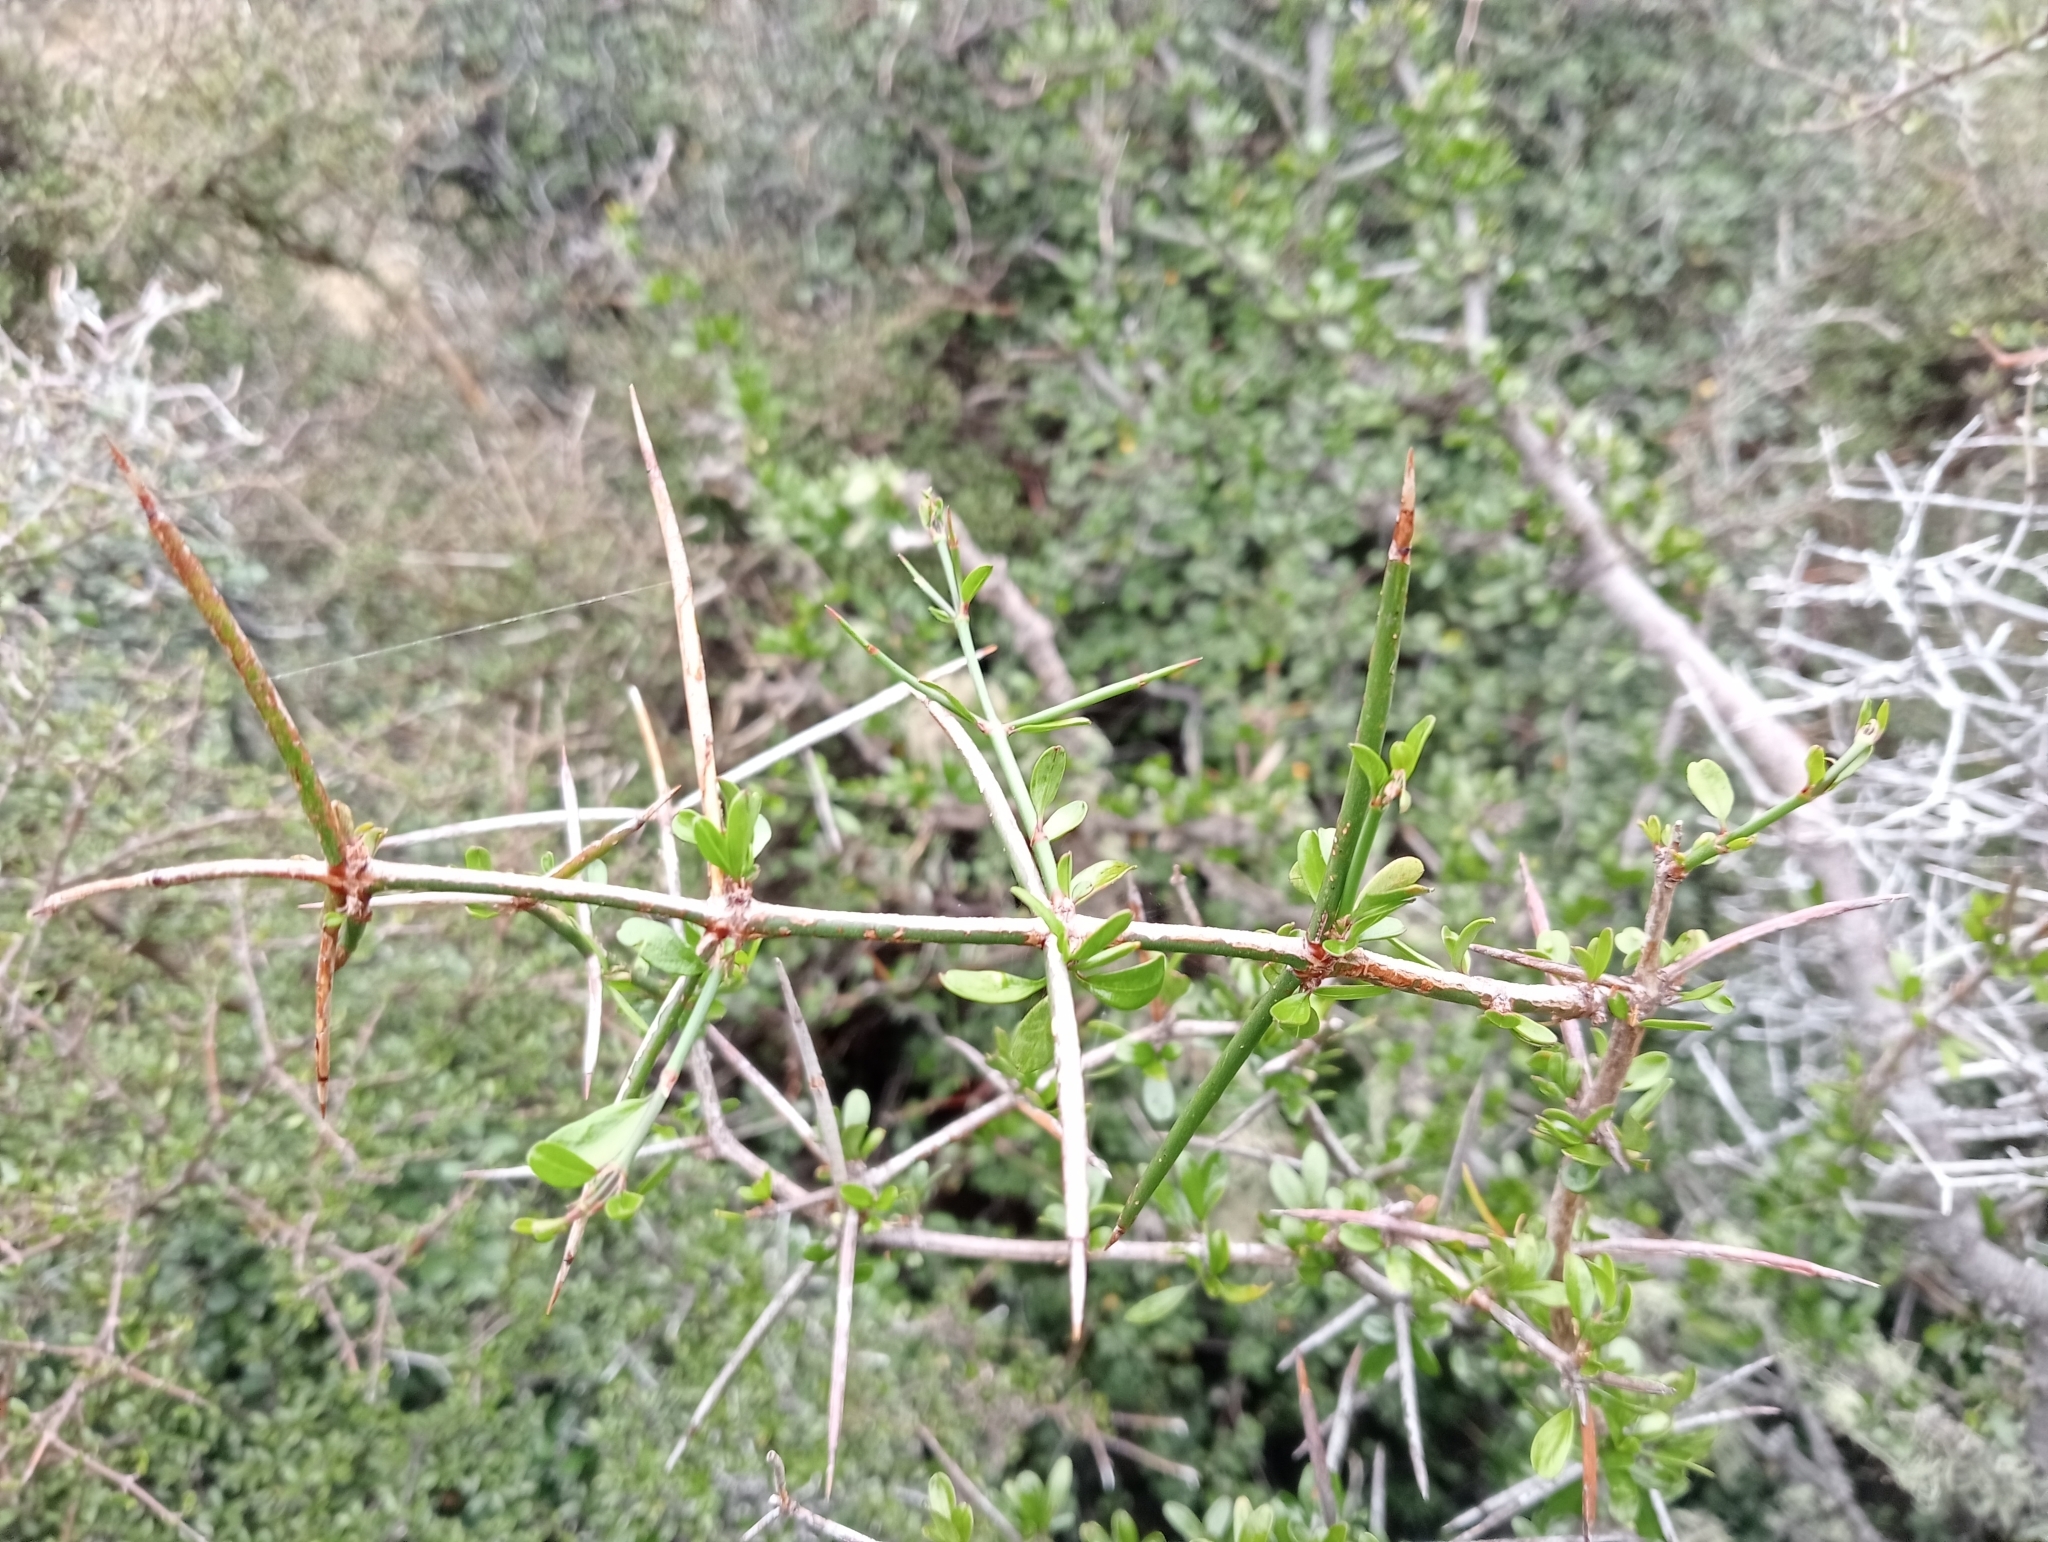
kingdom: Plantae
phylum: Tracheophyta
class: Magnoliopsida
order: Rosales
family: Rhamnaceae
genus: Discaria
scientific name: Discaria toumatou
